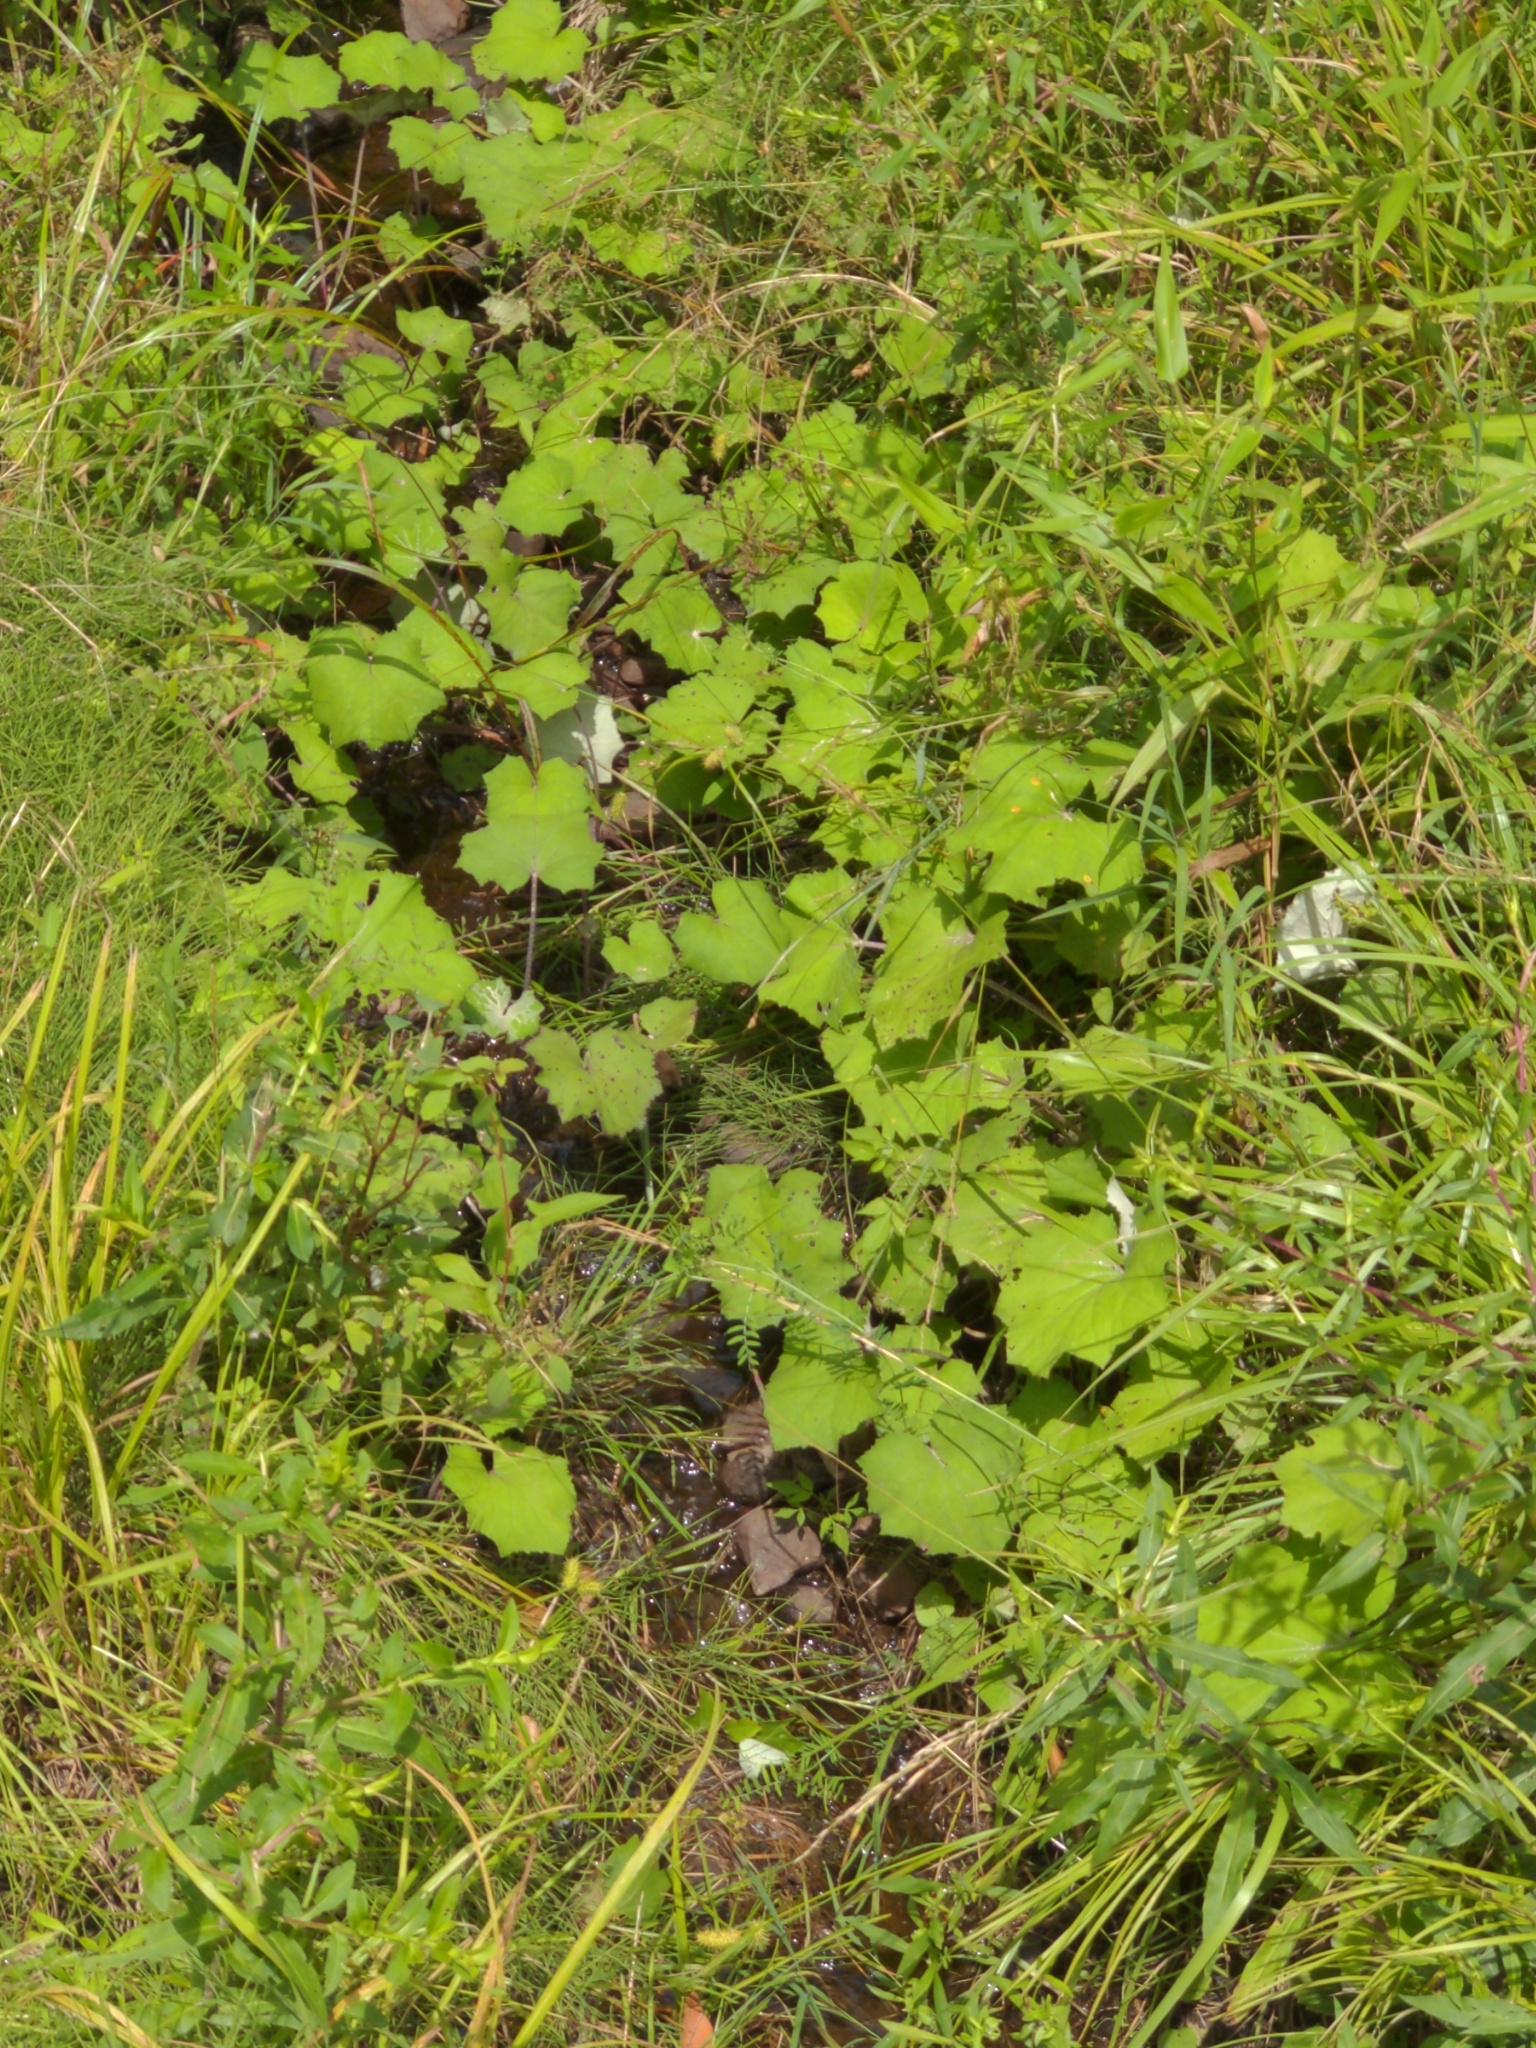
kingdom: Plantae
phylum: Tracheophyta
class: Magnoliopsida
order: Asterales
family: Asteraceae
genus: Tussilago
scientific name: Tussilago farfara
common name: Coltsfoot
